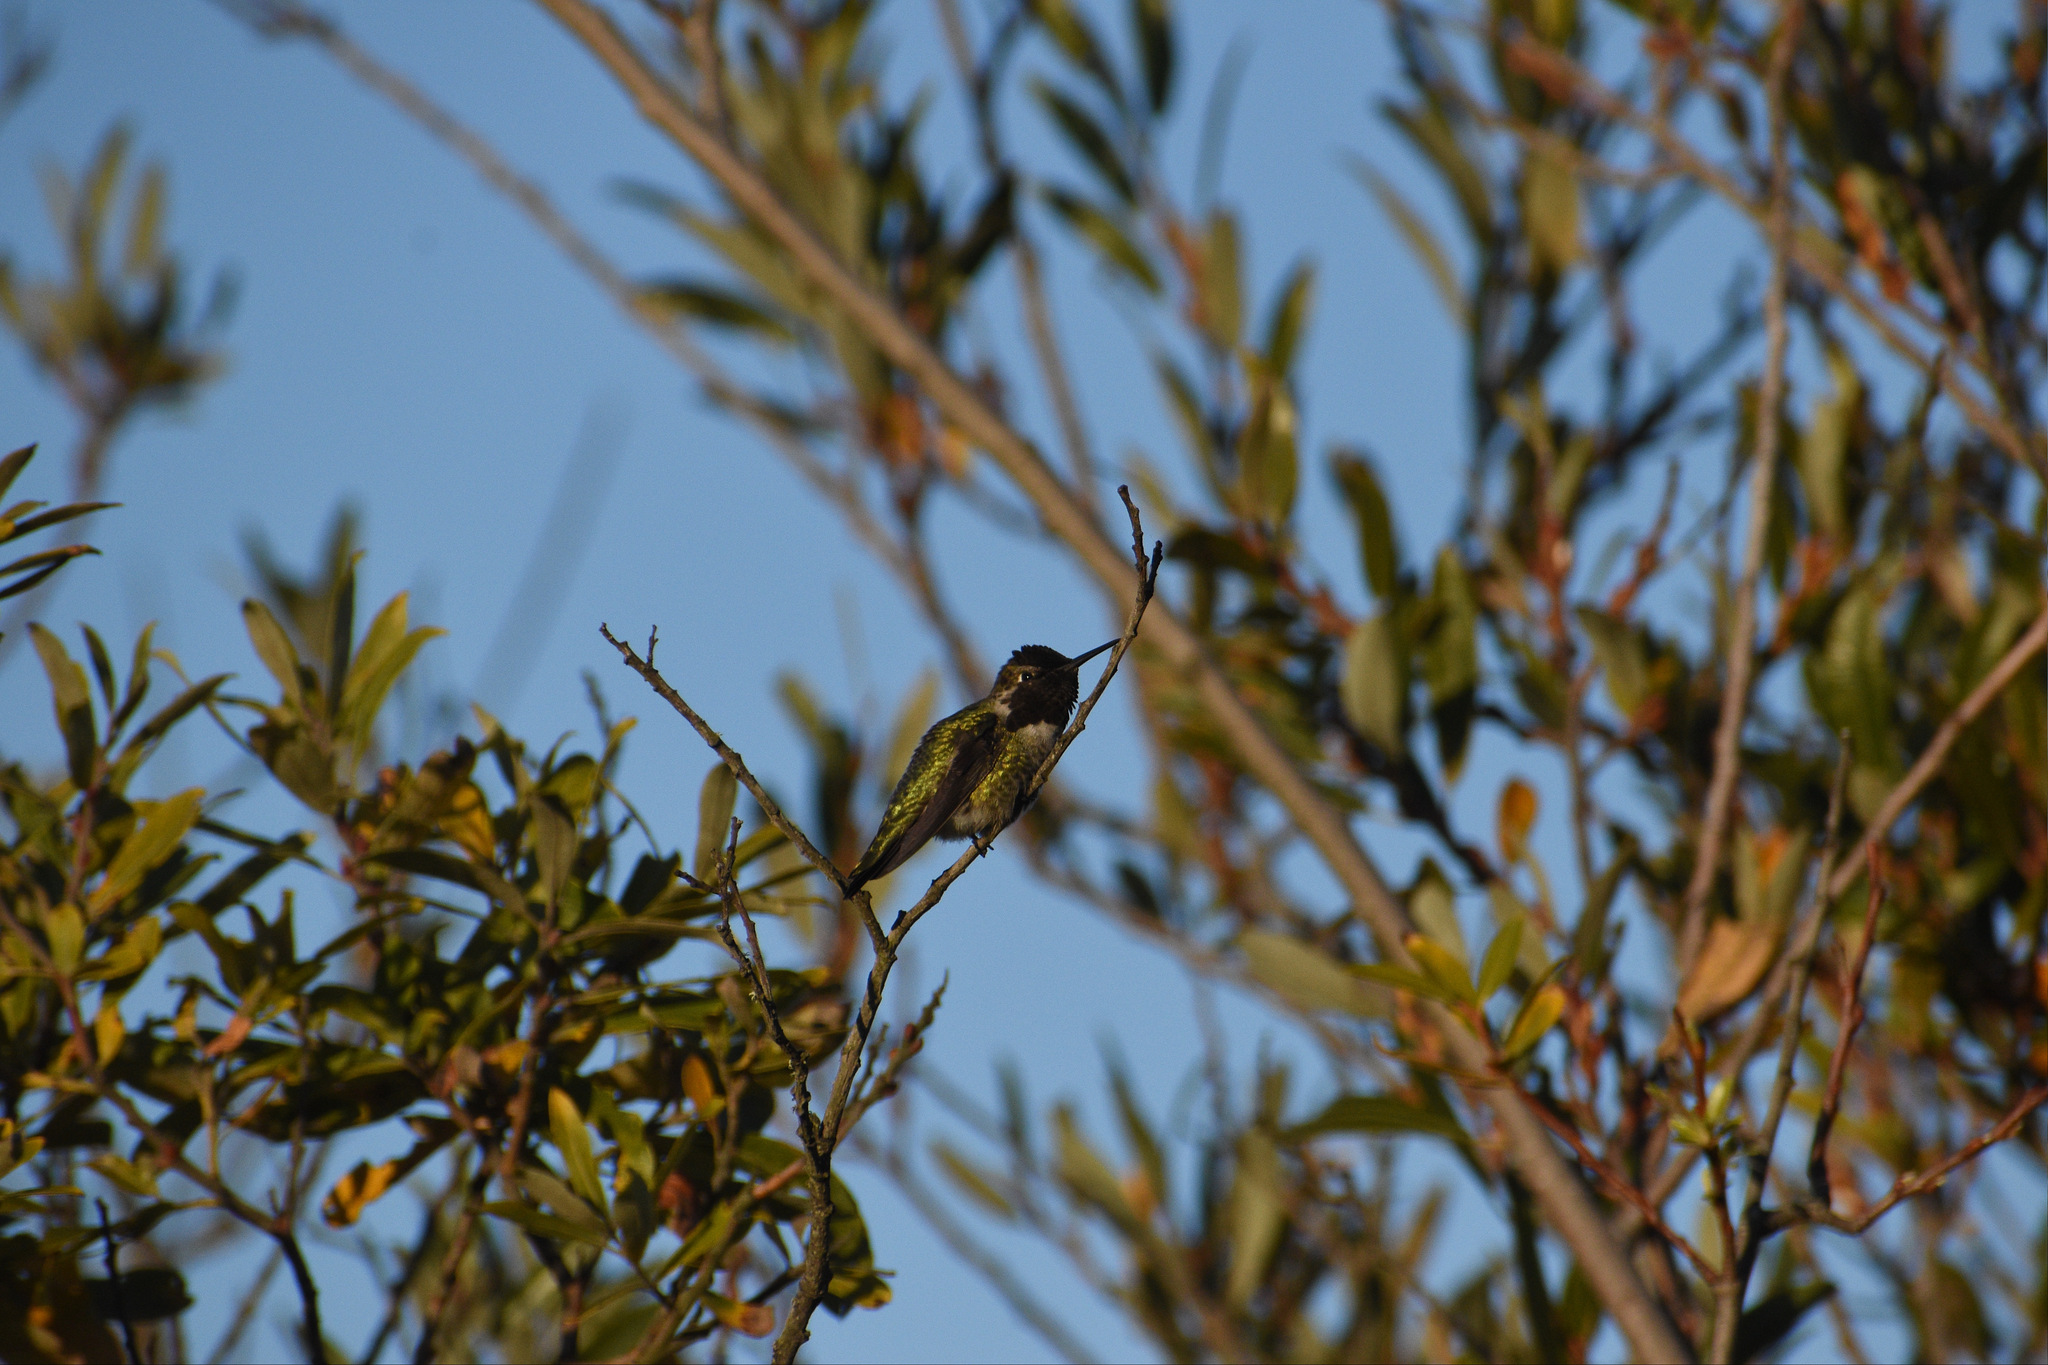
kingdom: Animalia
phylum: Chordata
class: Aves
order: Apodiformes
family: Trochilidae
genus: Calypte
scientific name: Calypte anna
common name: Anna's hummingbird
